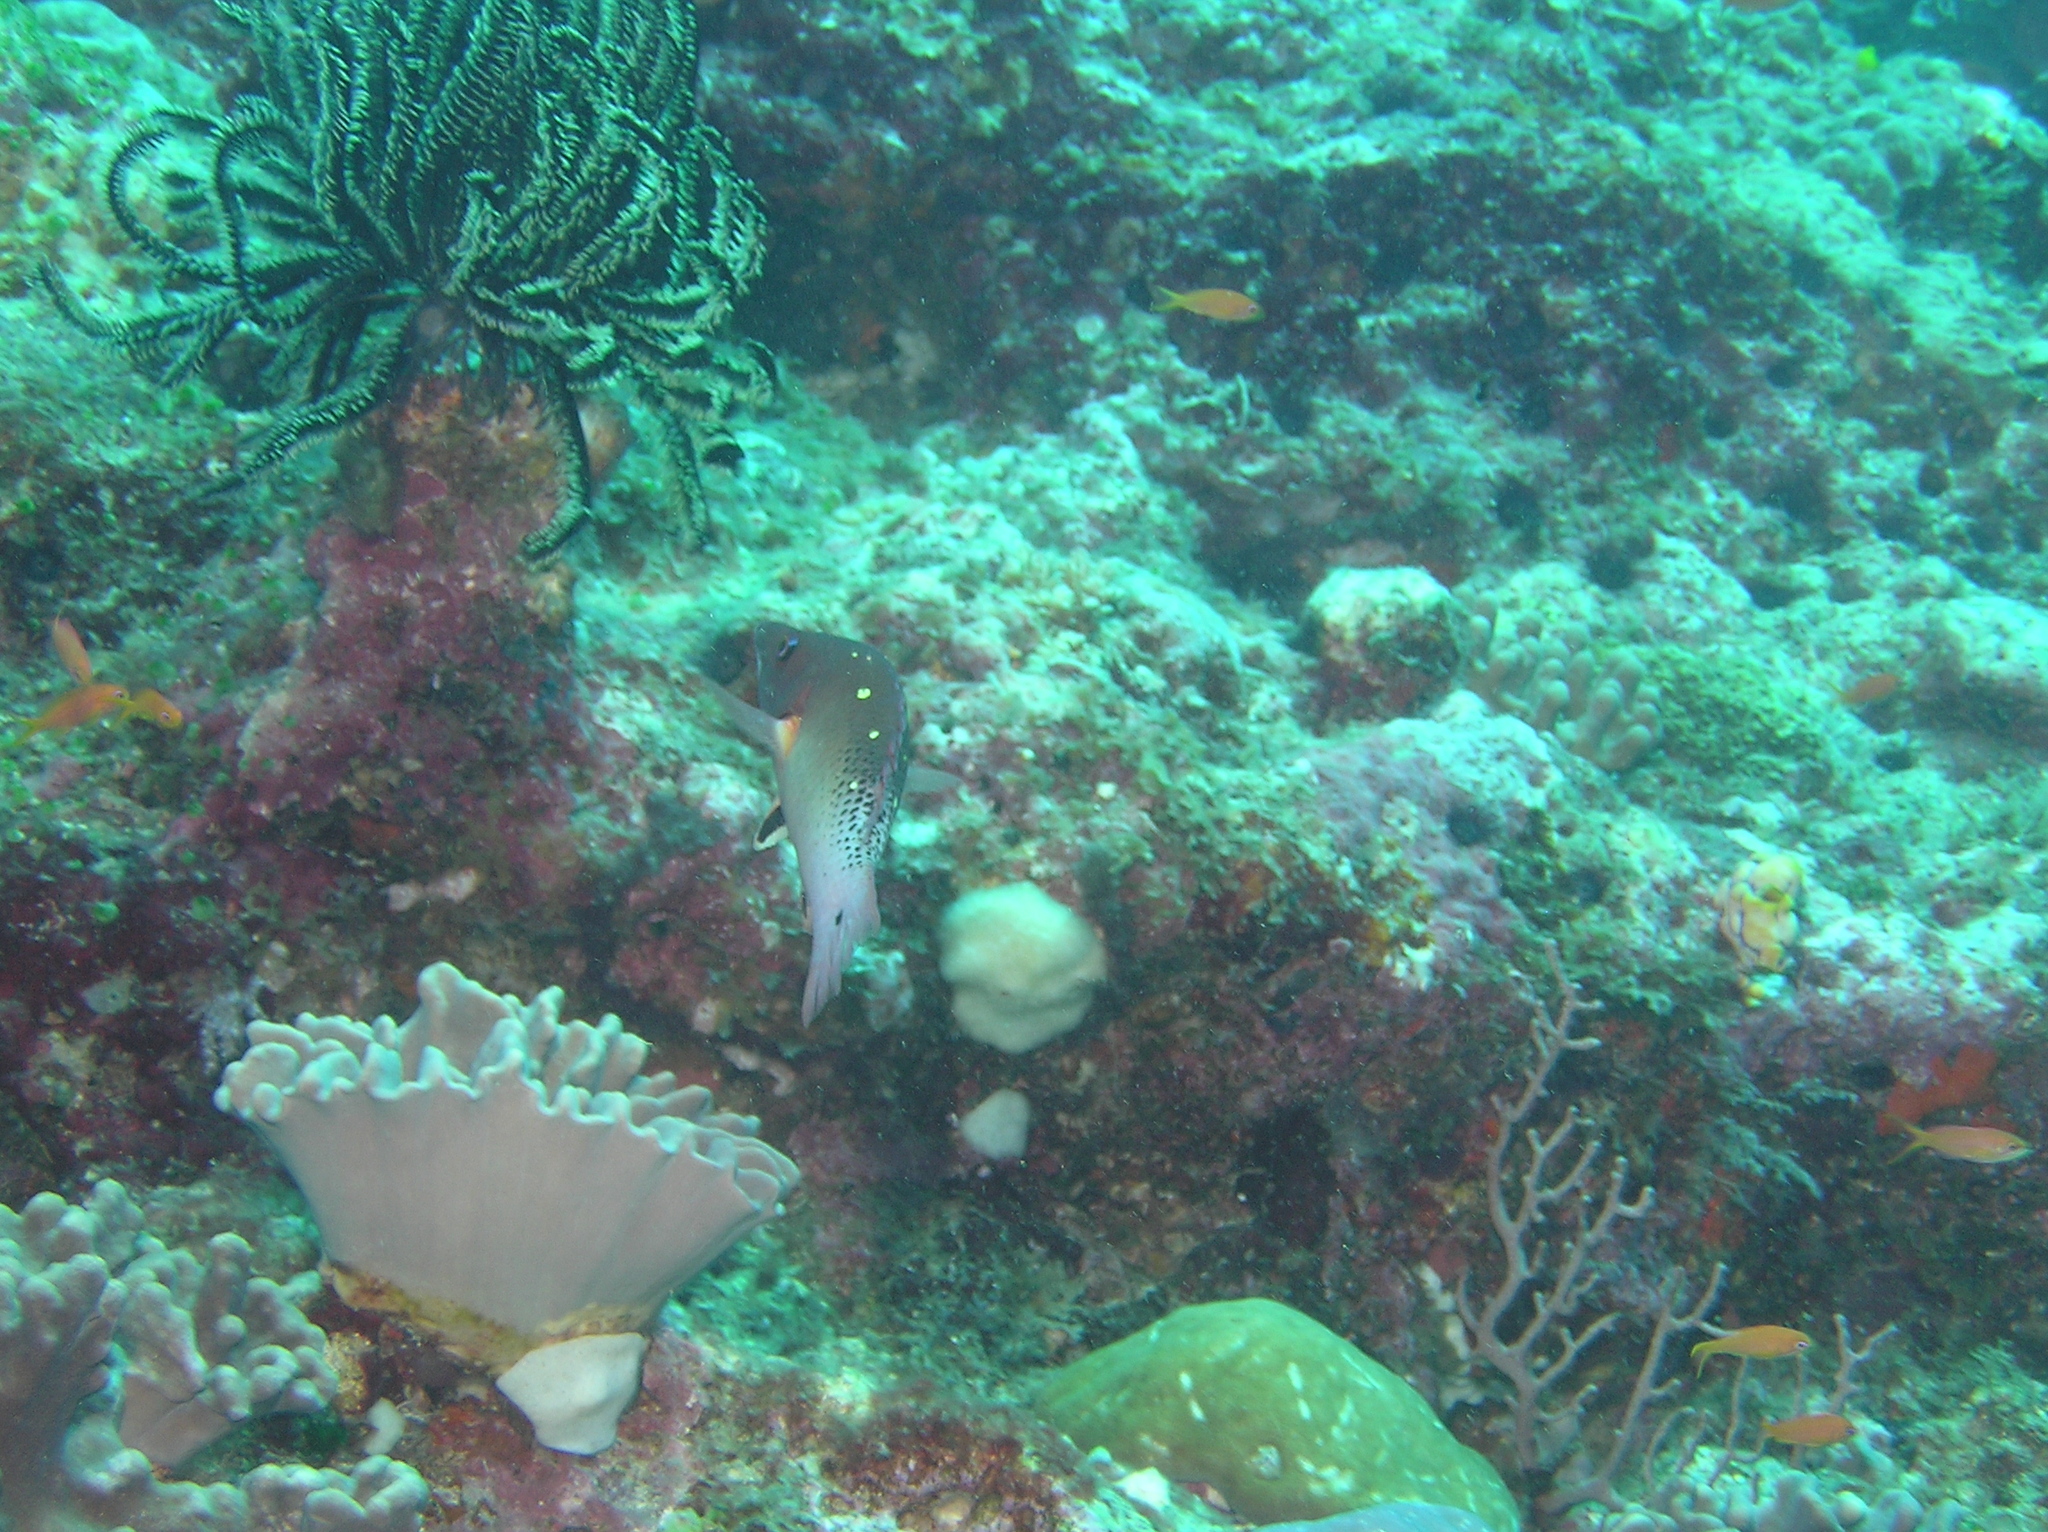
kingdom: Animalia
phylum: Chordata
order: Perciformes
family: Labridae
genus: Bodianus
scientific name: Bodianus dictynna
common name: Diana's hogfish
